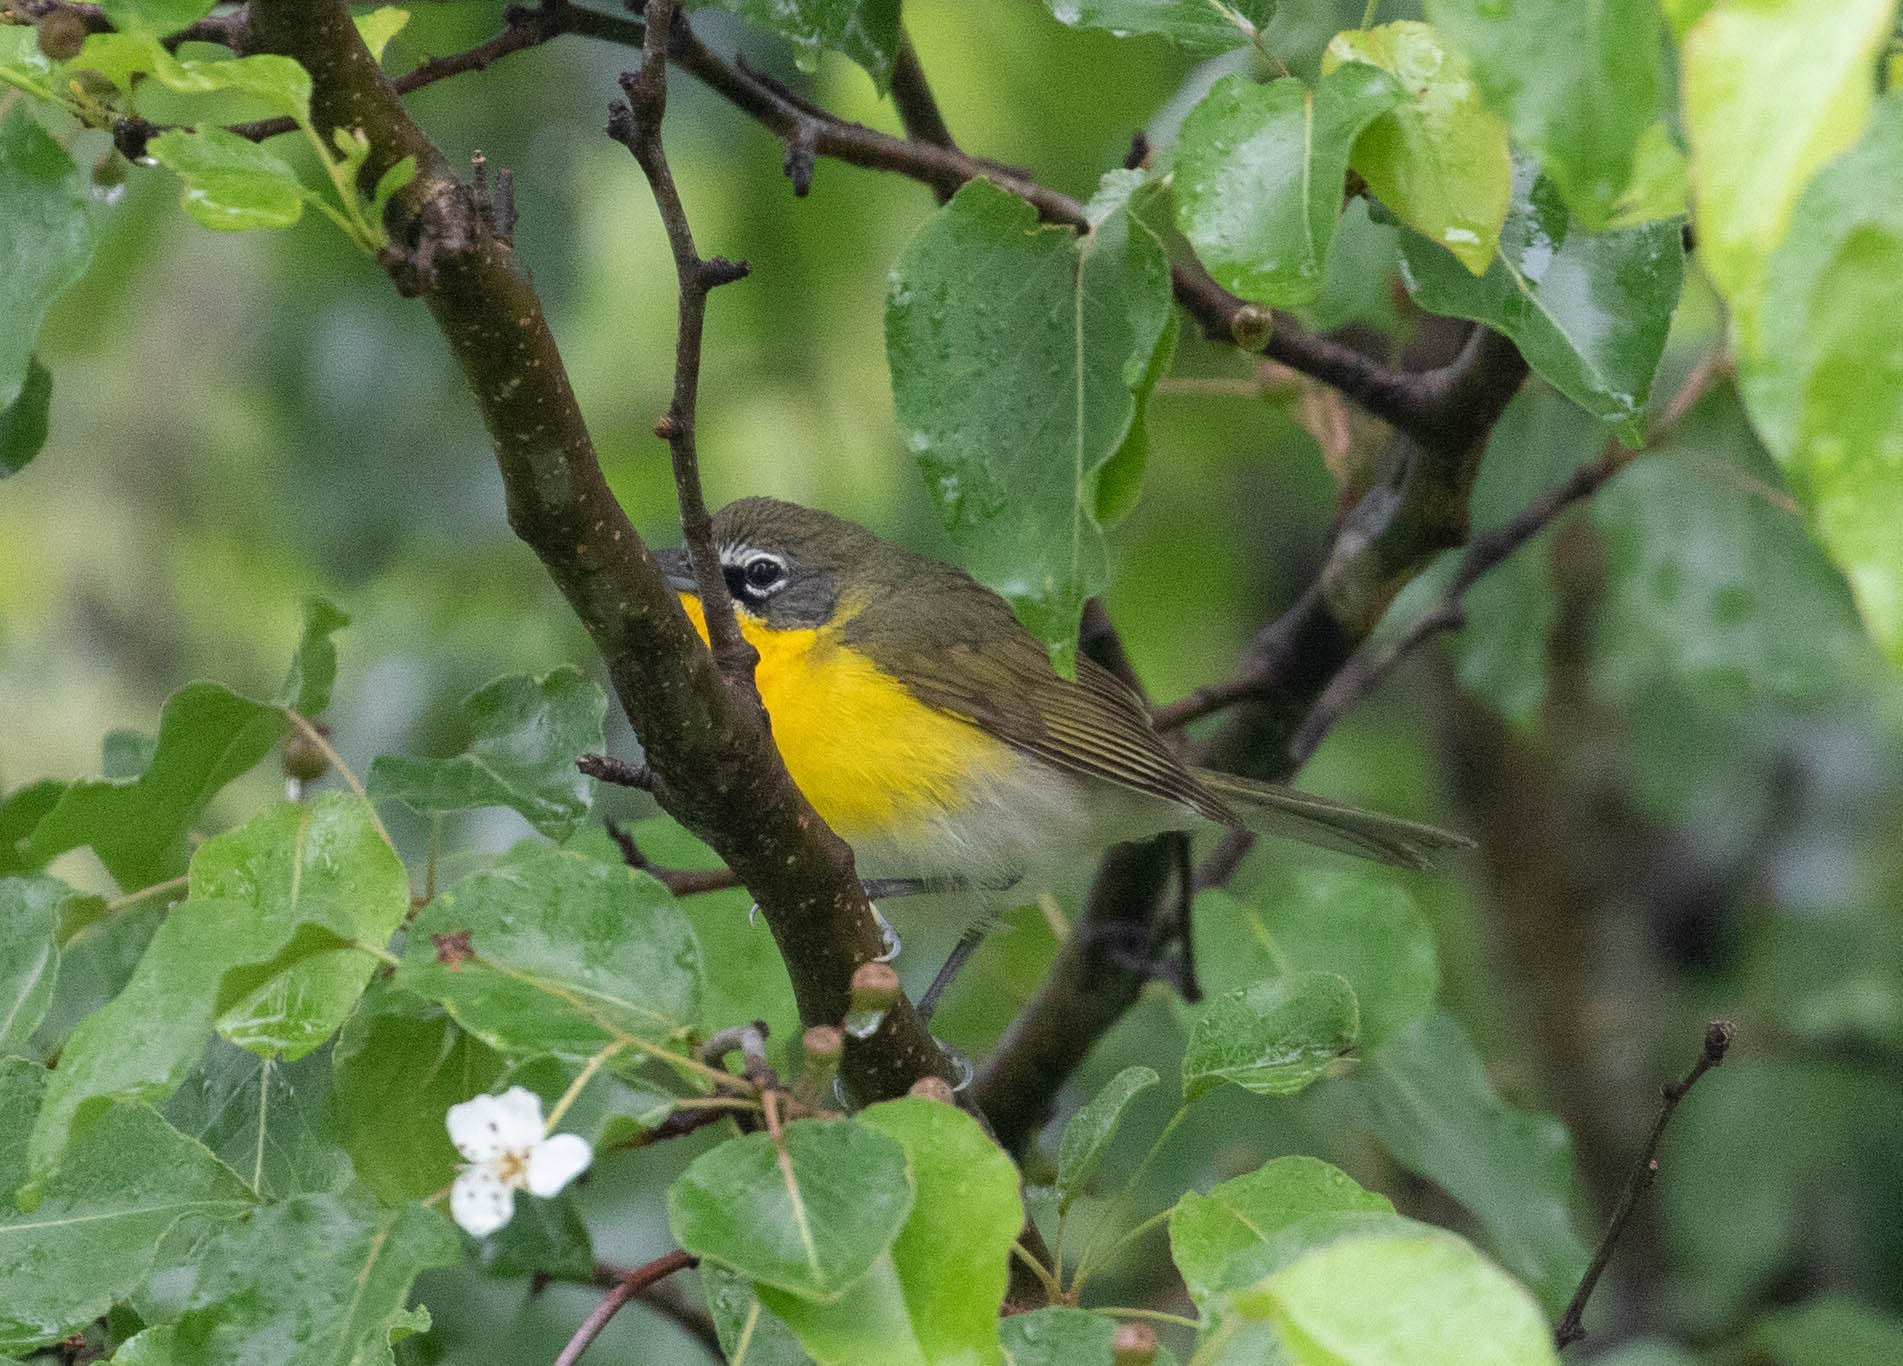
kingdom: Animalia
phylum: Chordata
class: Aves
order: Passeriformes
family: Parulidae
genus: Icteria
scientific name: Icteria virens
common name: Yellow-breasted chat
